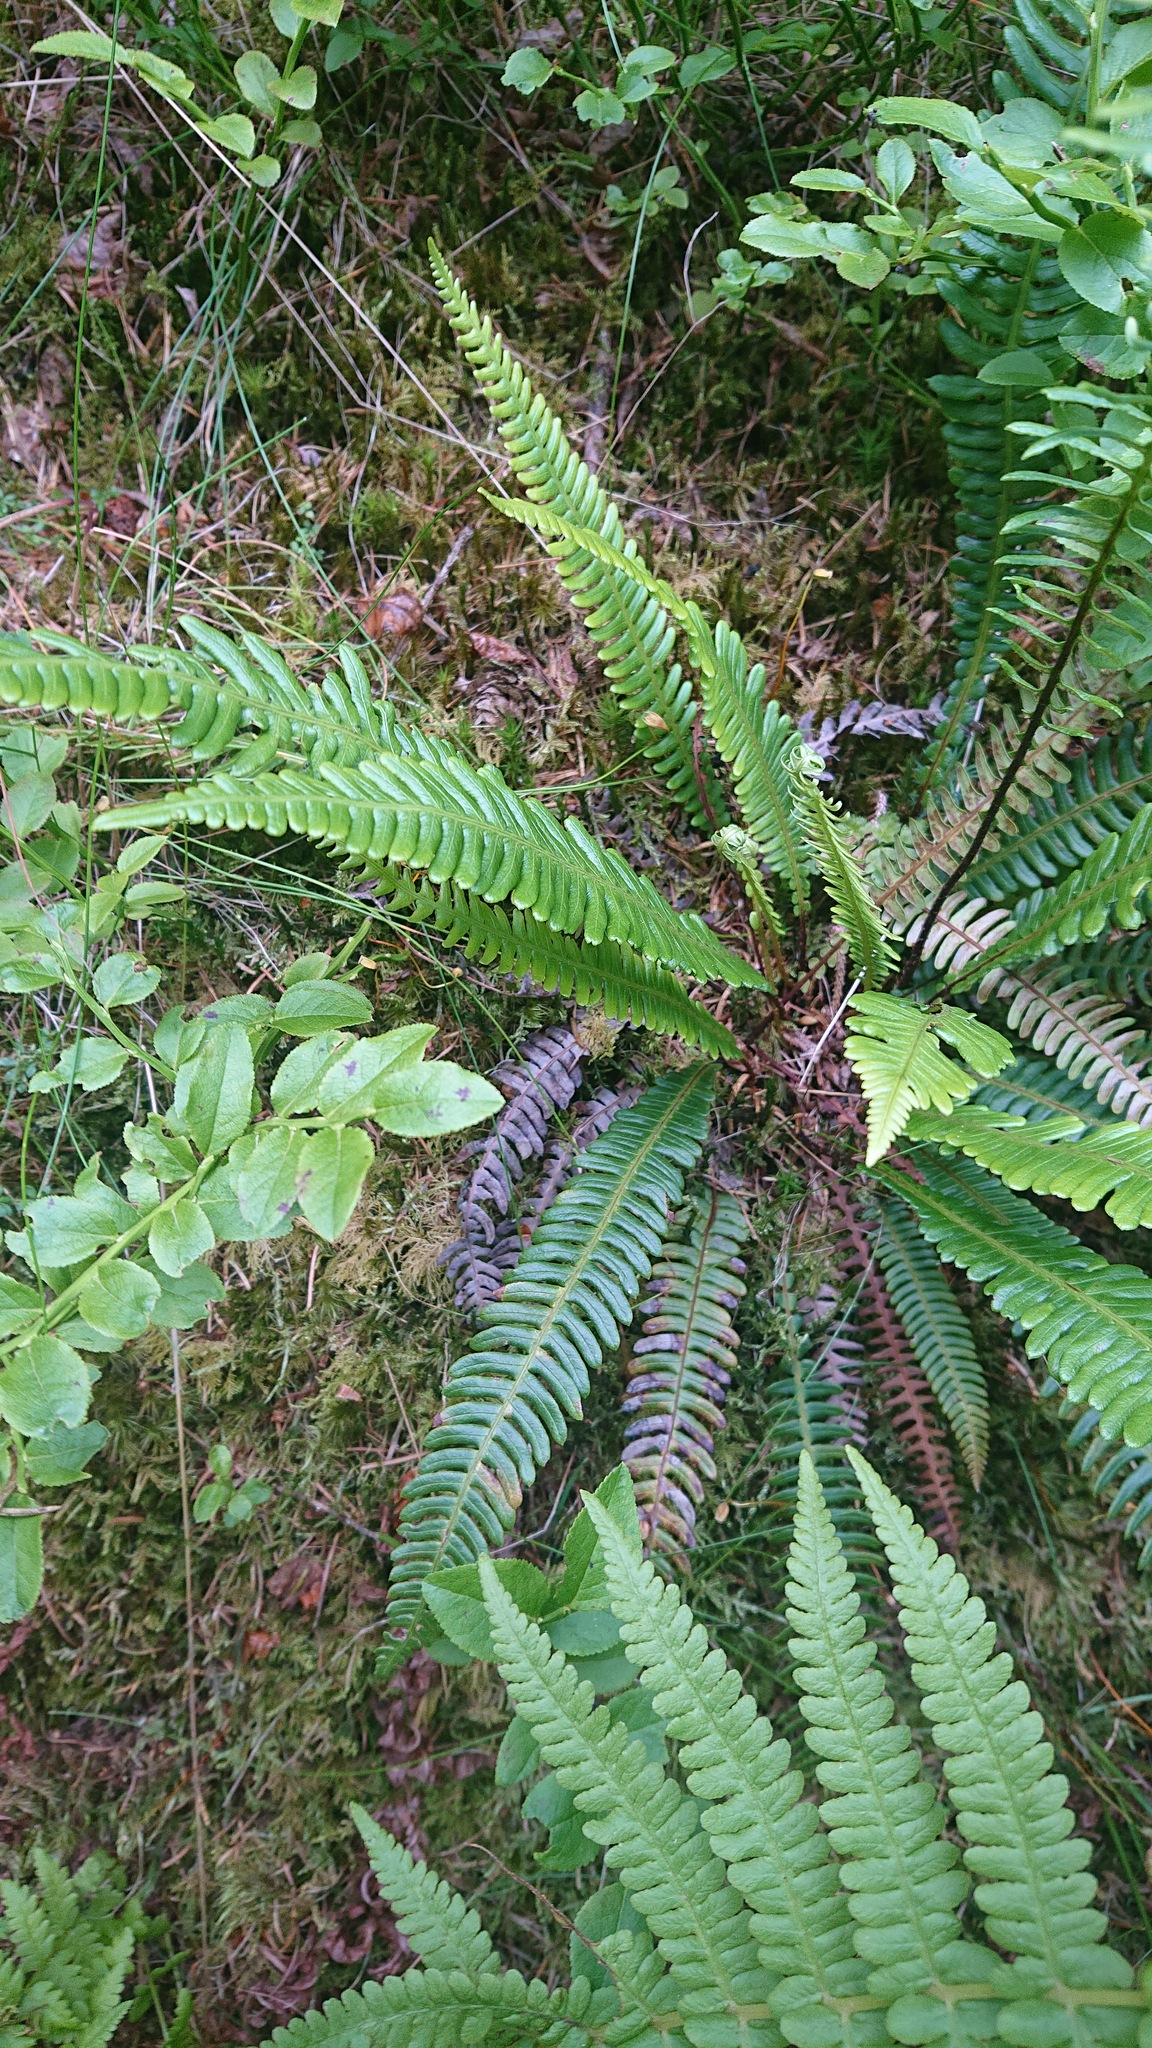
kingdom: Plantae
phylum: Tracheophyta
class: Polypodiopsida
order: Polypodiales
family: Blechnaceae
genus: Struthiopteris
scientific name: Struthiopteris spicant
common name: Deer fern
